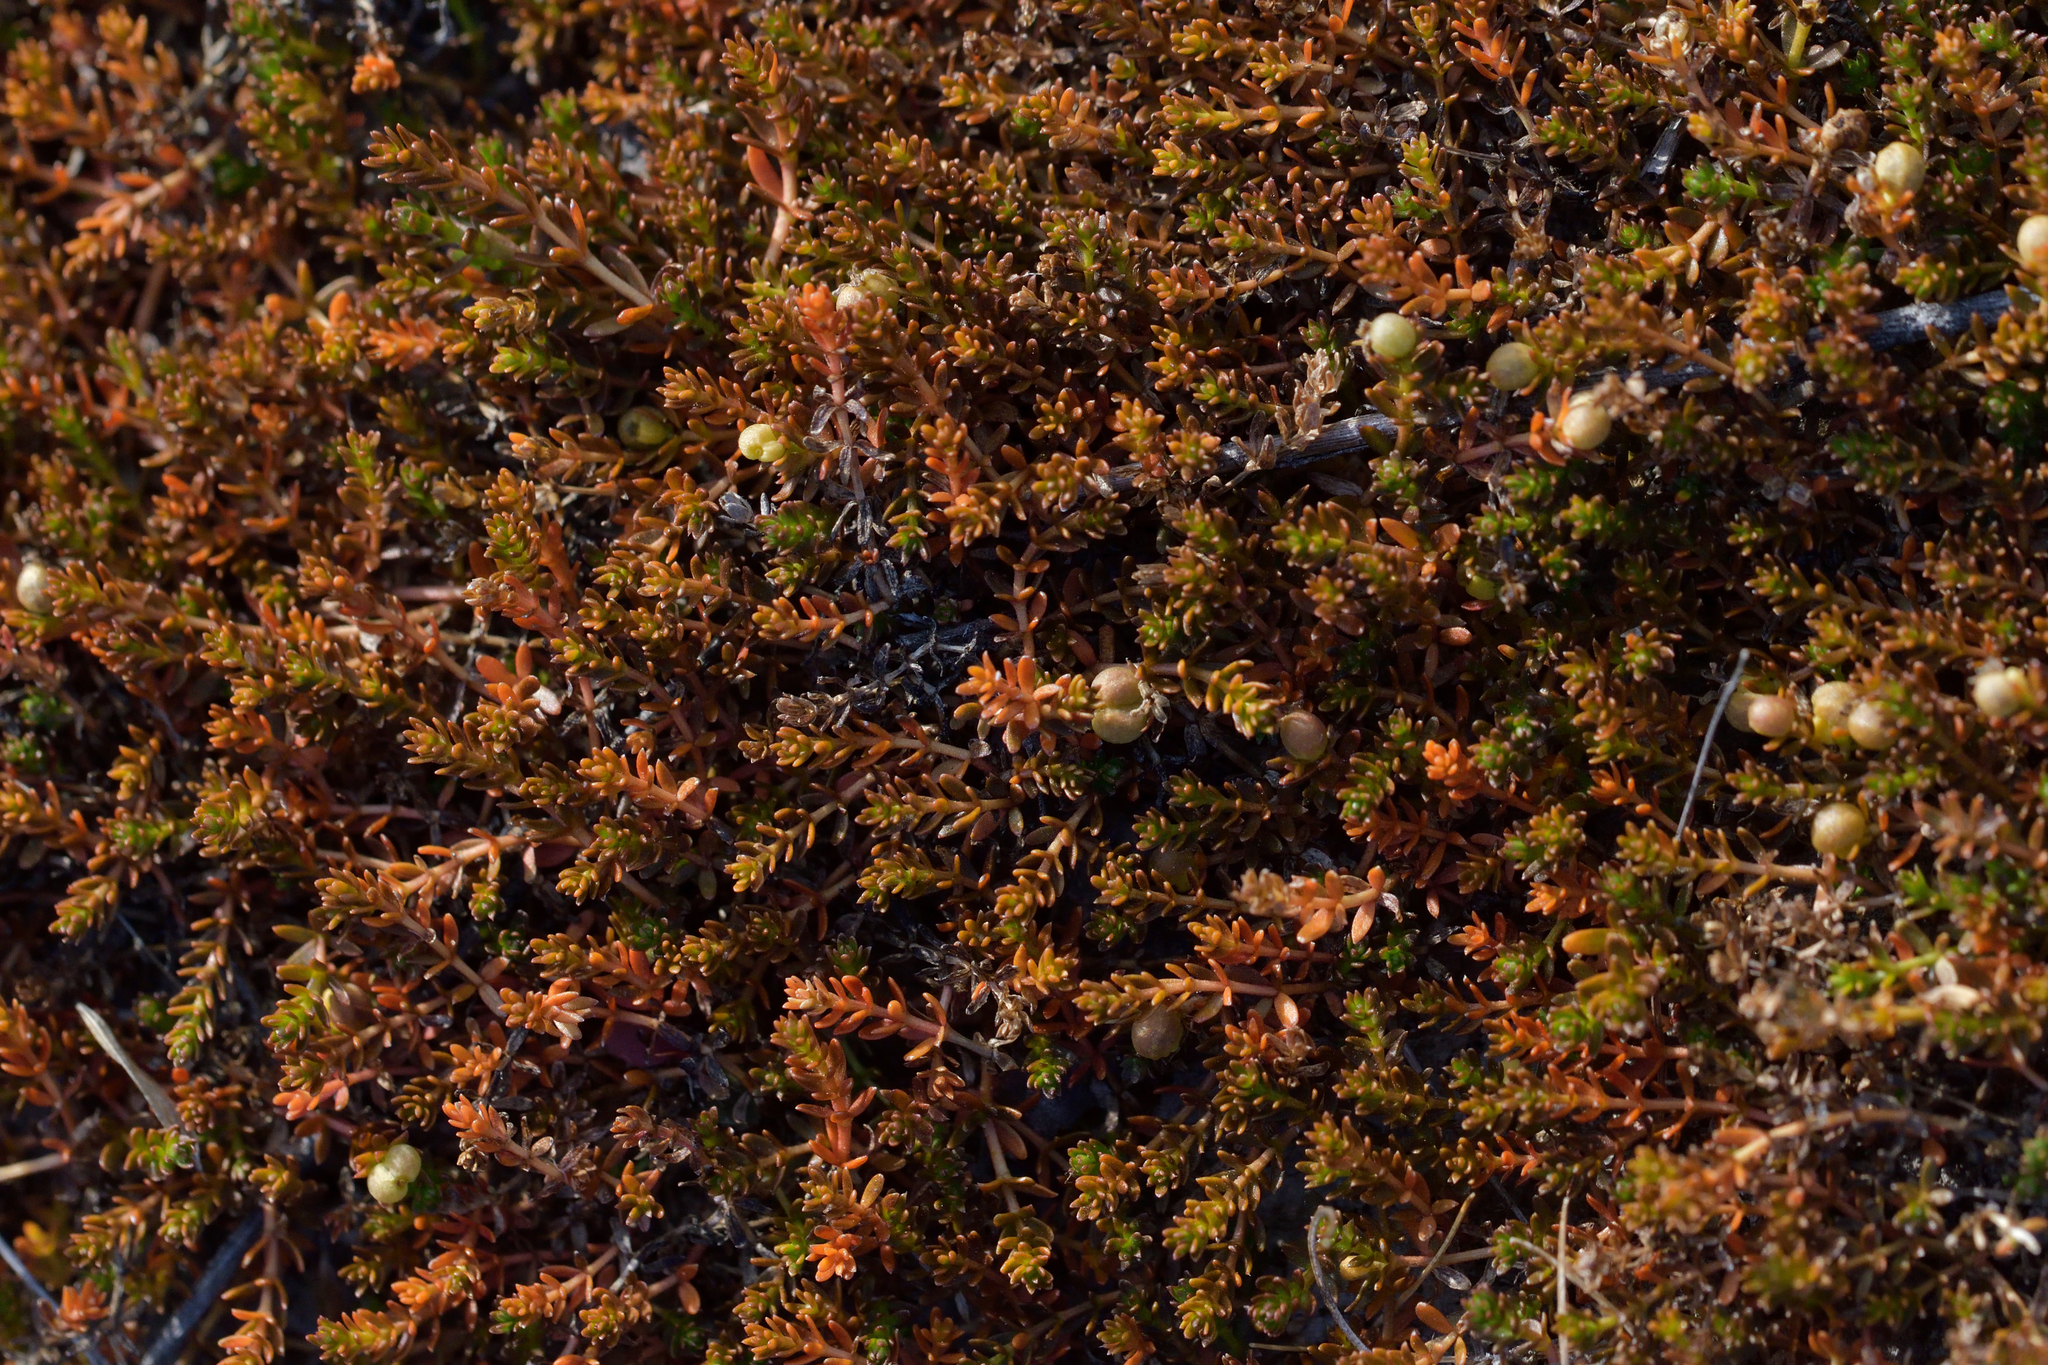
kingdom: Plantae
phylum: Tracheophyta
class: Magnoliopsida
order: Gentianales
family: Rubiaceae
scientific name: Rubiaceae
